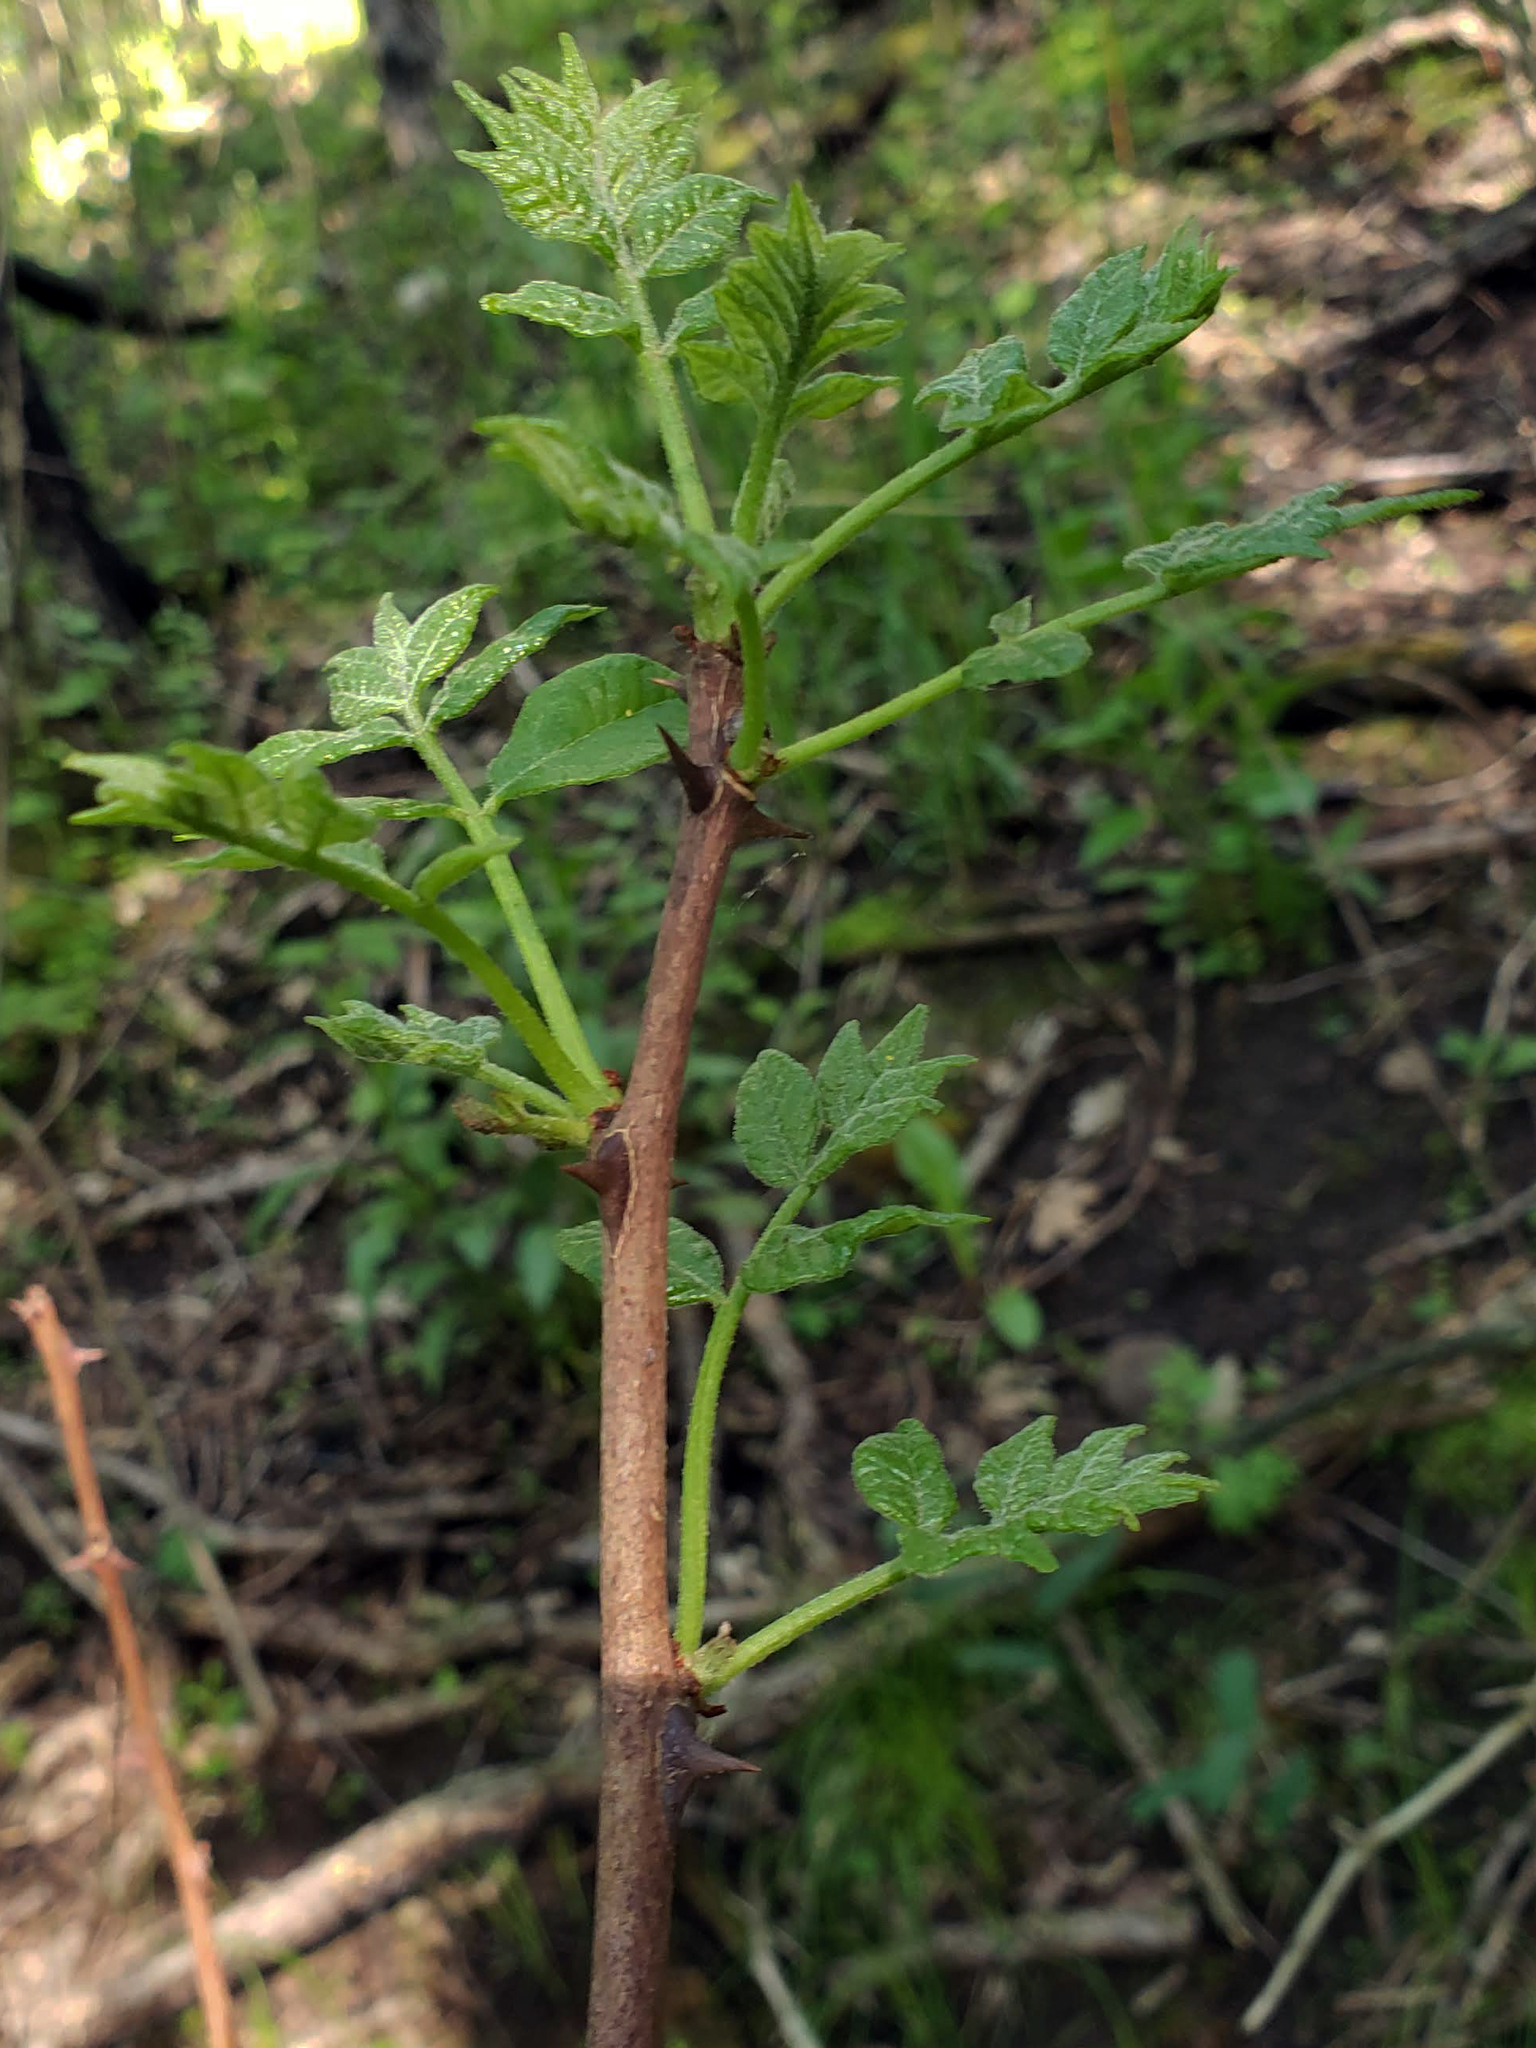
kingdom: Plantae
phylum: Tracheophyta
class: Magnoliopsida
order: Sapindales
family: Rutaceae
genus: Zanthoxylum
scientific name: Zanthoxylum americanum
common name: Northern prickly-ash
